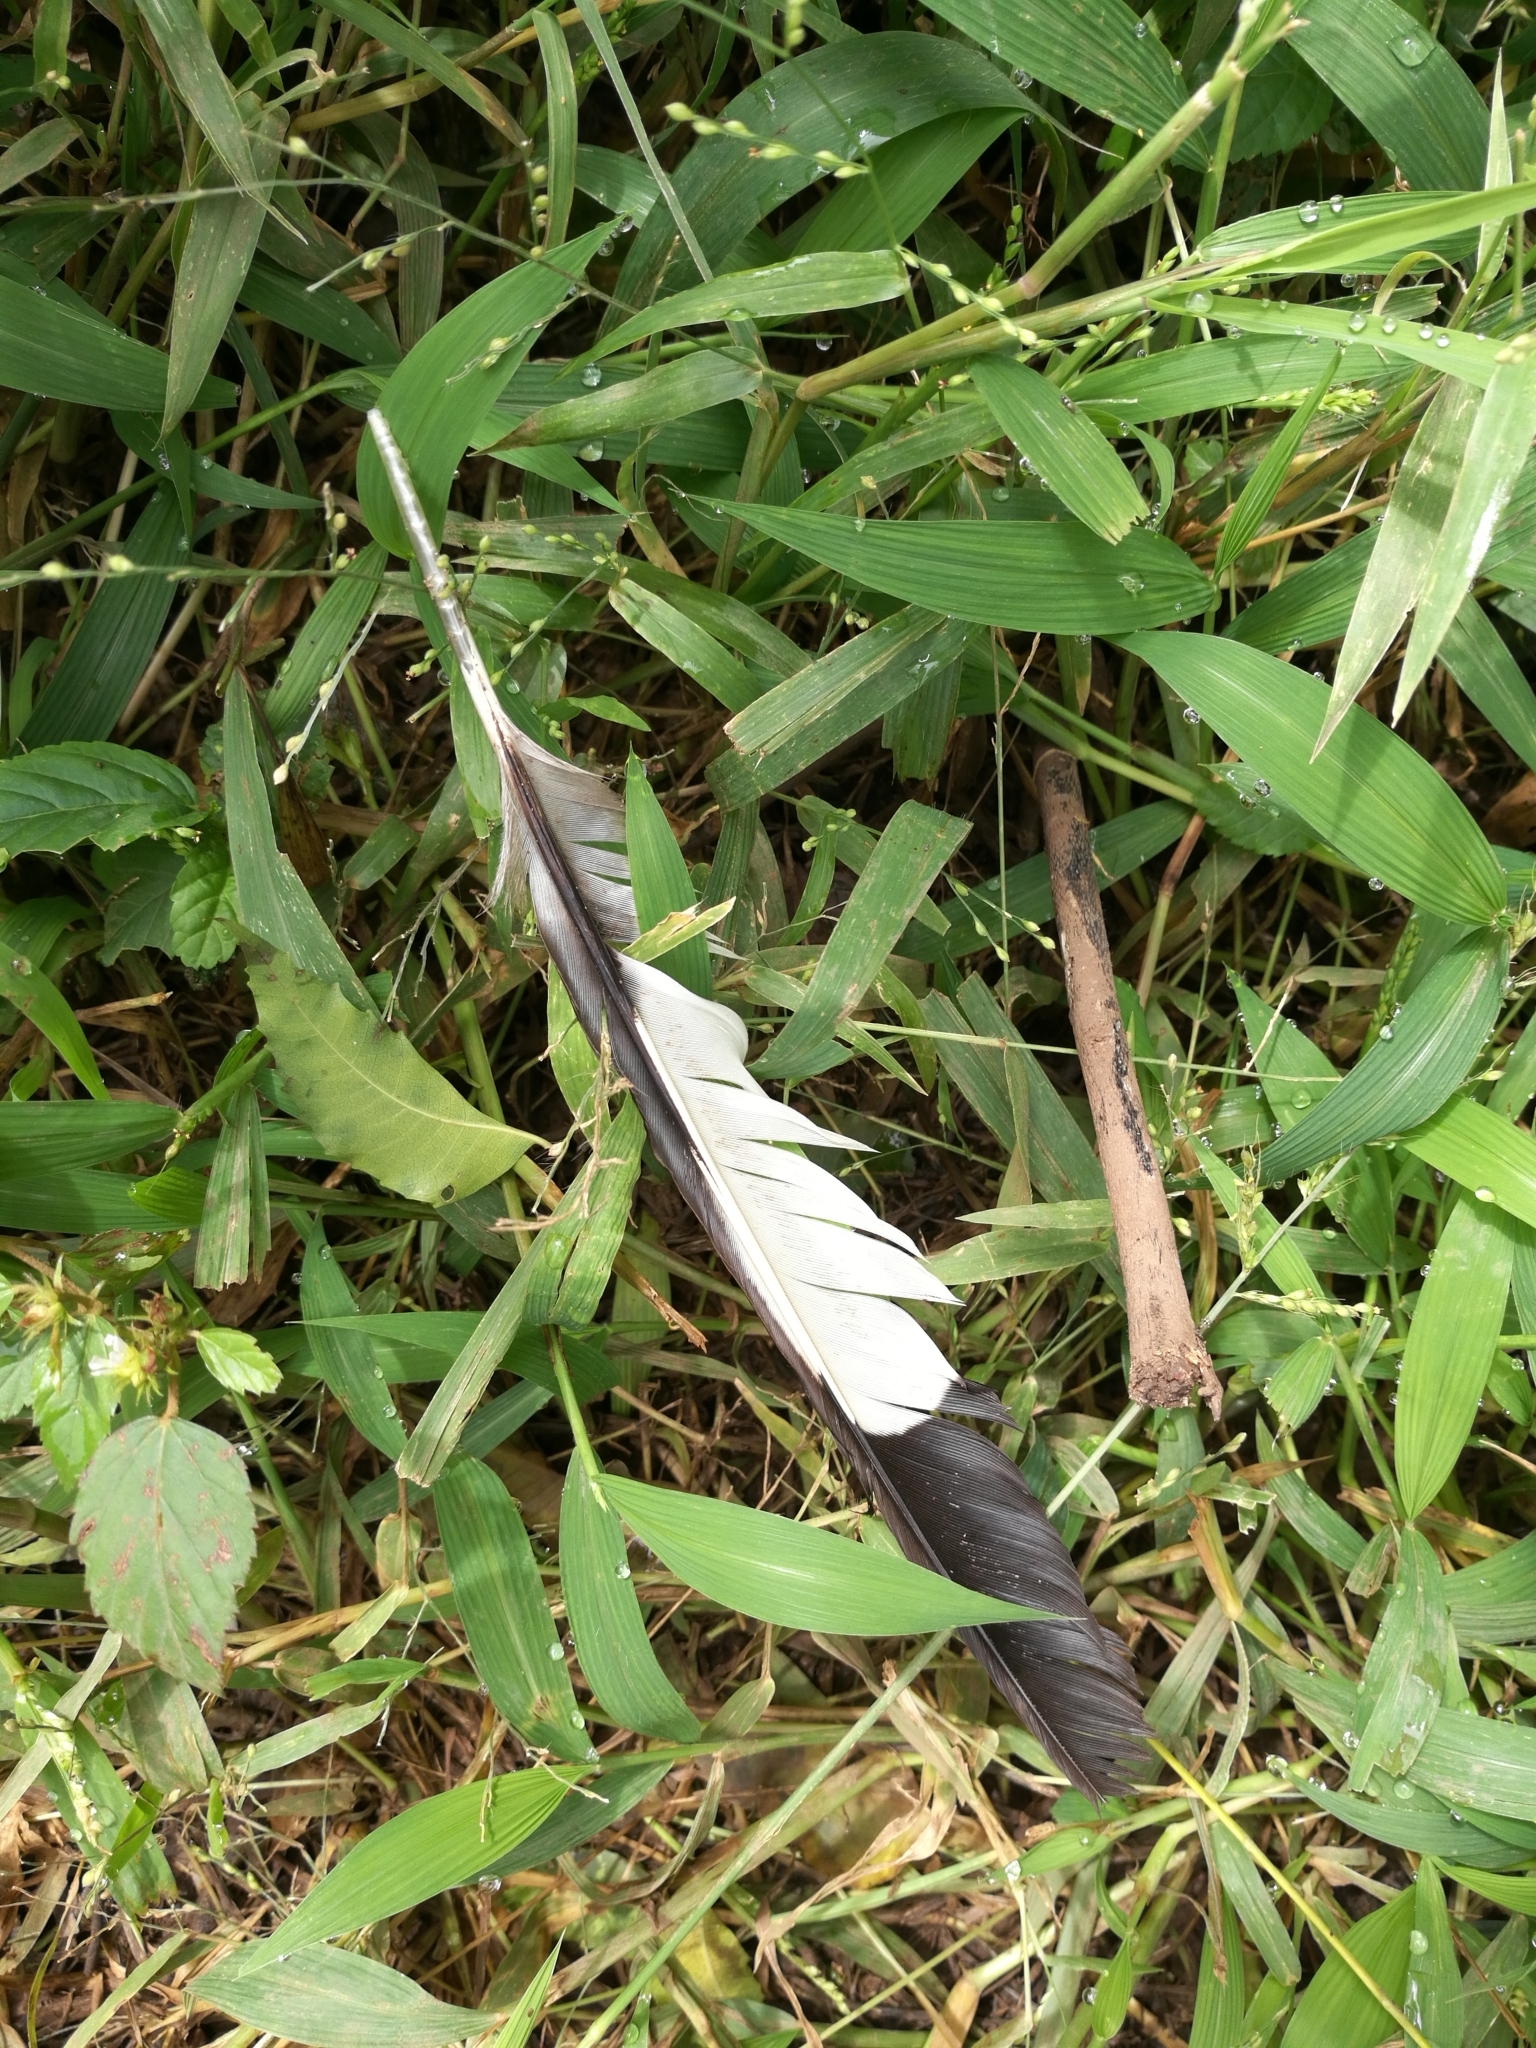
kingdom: Animalia
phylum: Chordata
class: Aves
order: Musophagiformes
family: Musophagidae
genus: Crinifer
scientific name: Crinifer piscator
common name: Western plantain-eater
